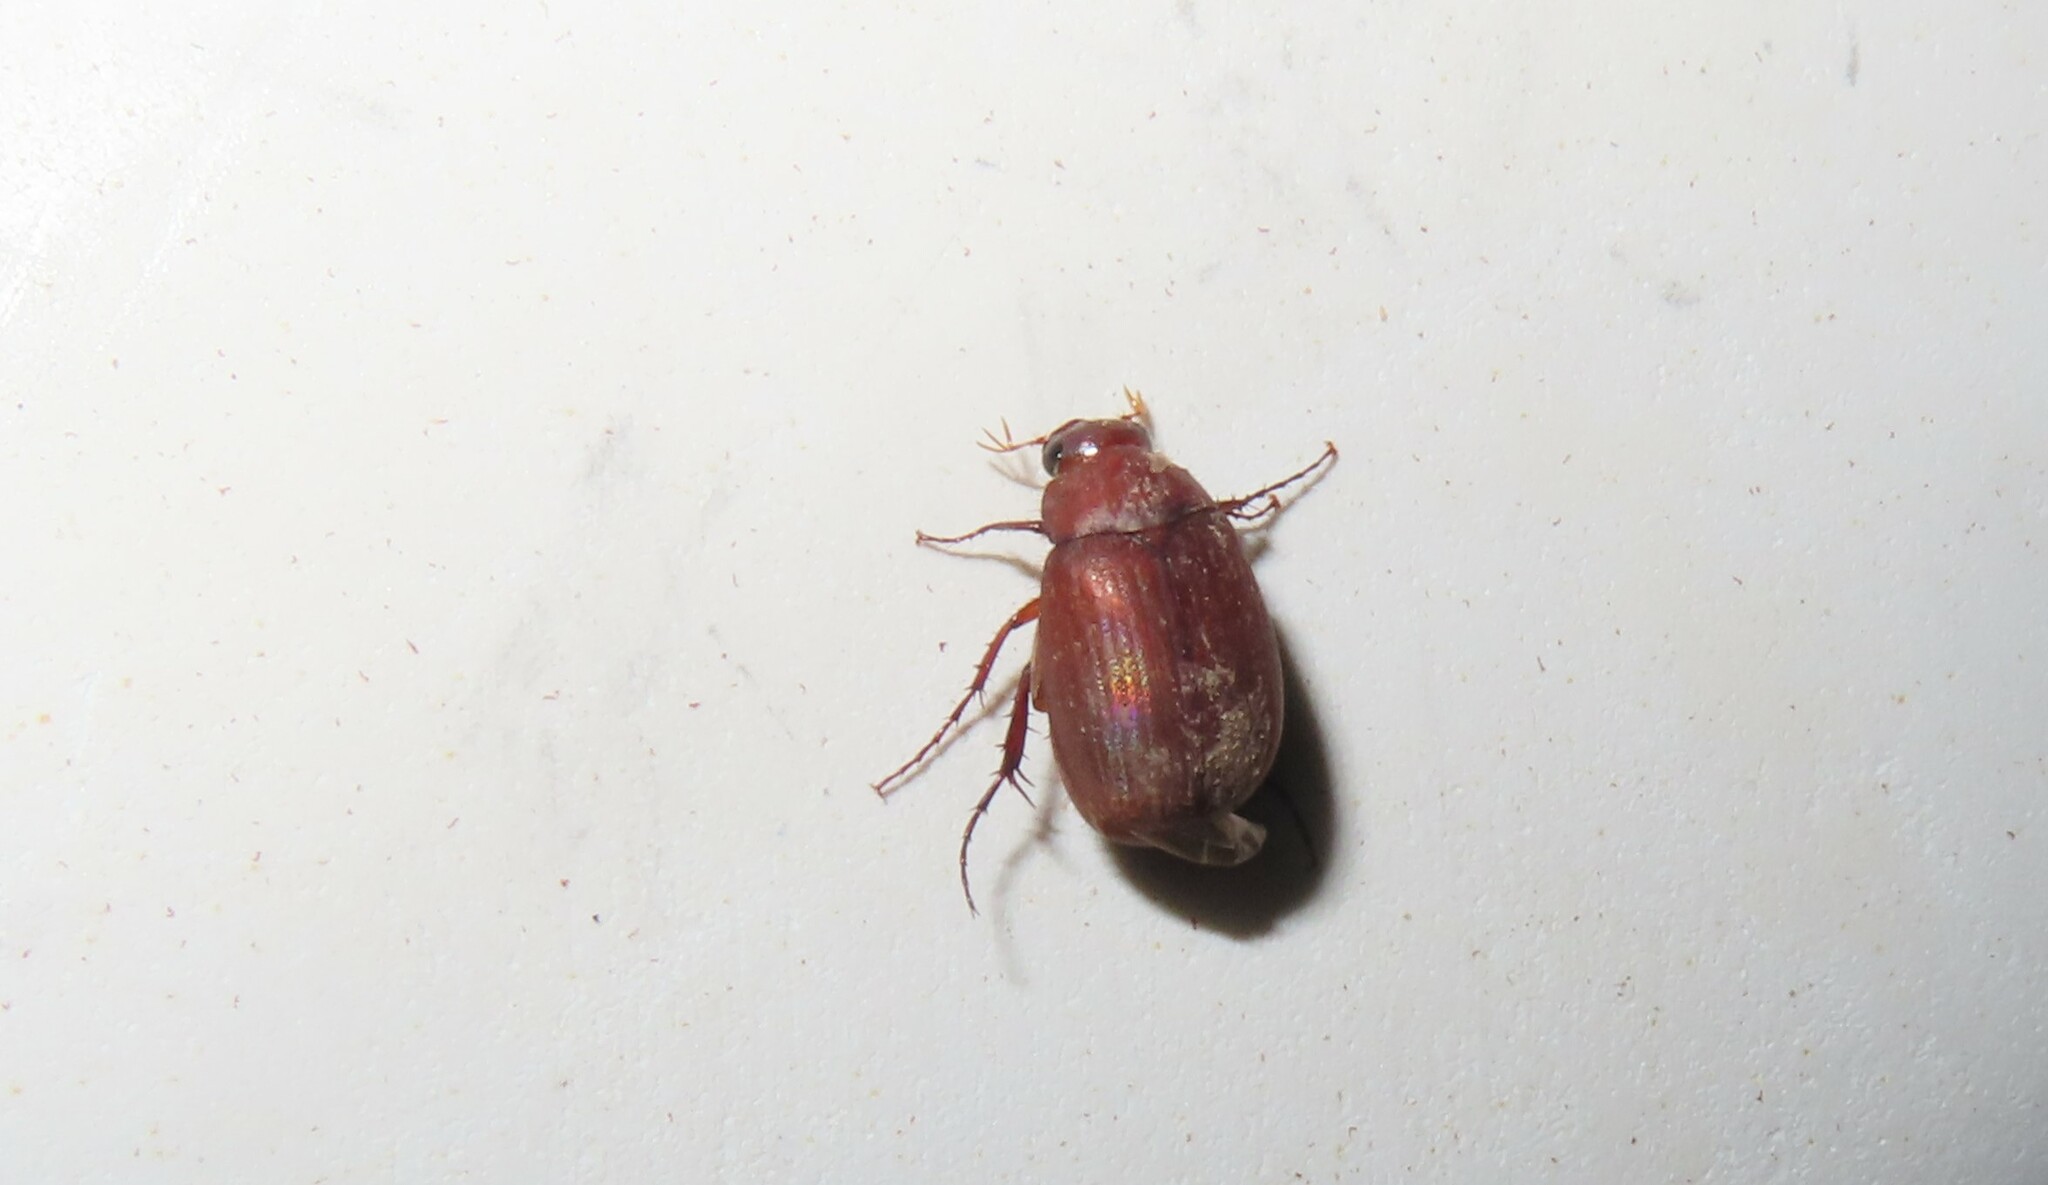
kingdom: Animalia
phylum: Arthropoda
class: Insecta
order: Coleoptera
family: Scarabaeidae
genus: Maladera
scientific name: Maladera formosae
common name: Asiatic garden beetle
